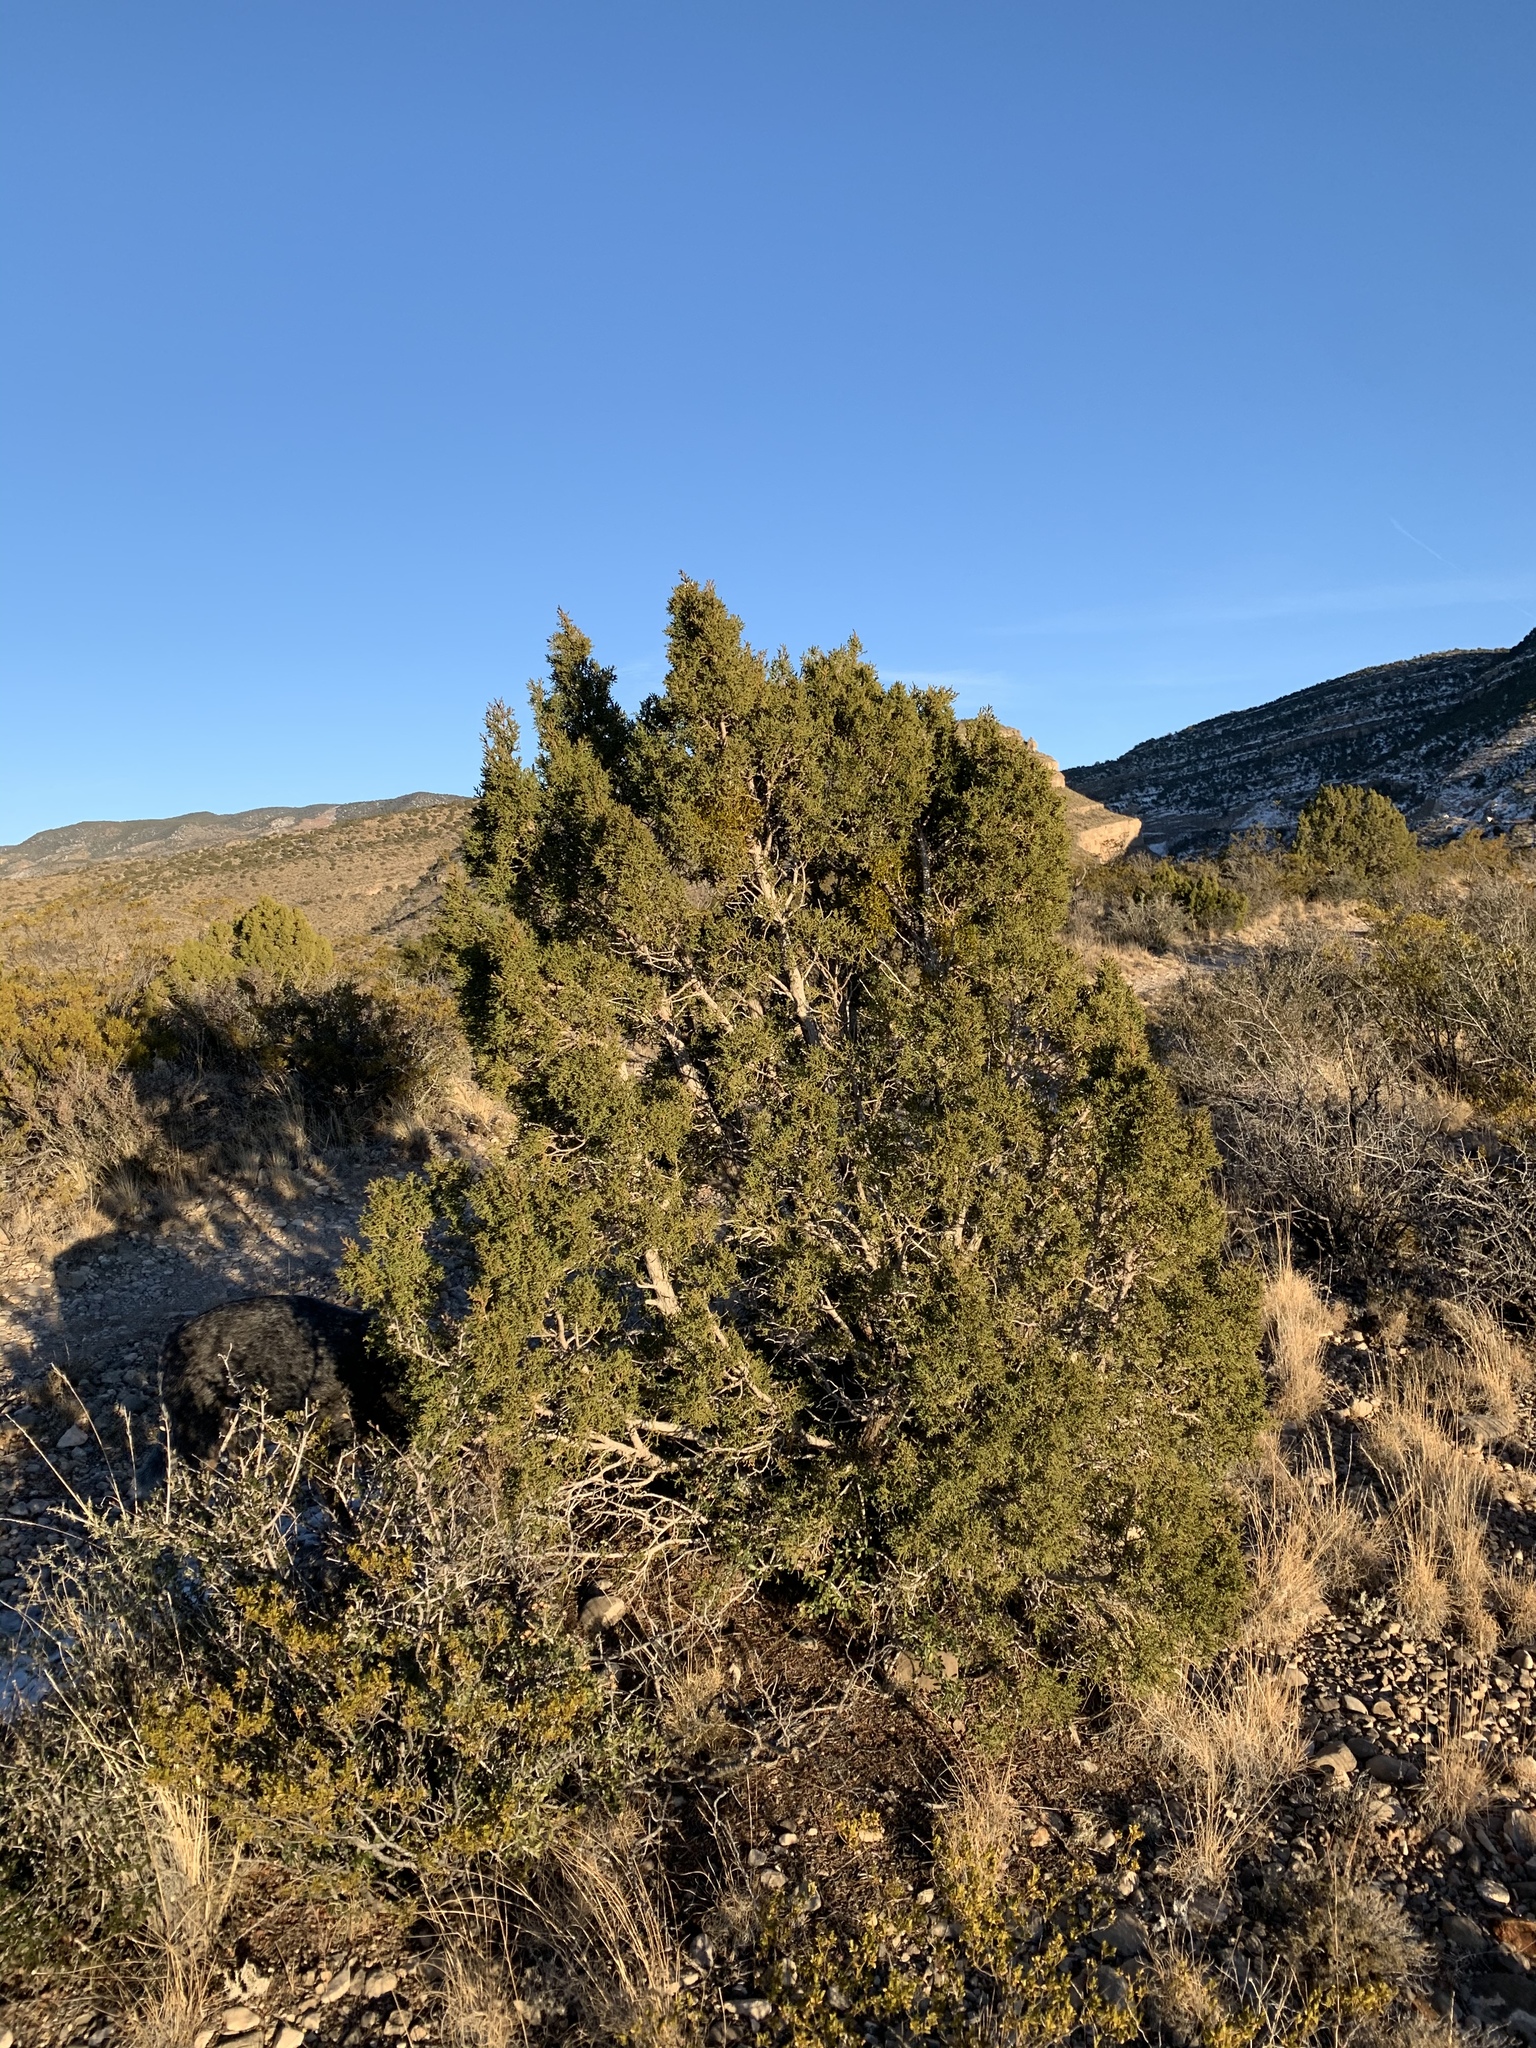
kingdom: Plantae
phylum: Tracheophyta
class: Pinopsida
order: Pinales
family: Cupressaceae
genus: Juniperus
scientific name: Juniperus monosperma
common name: One-seed juniper
